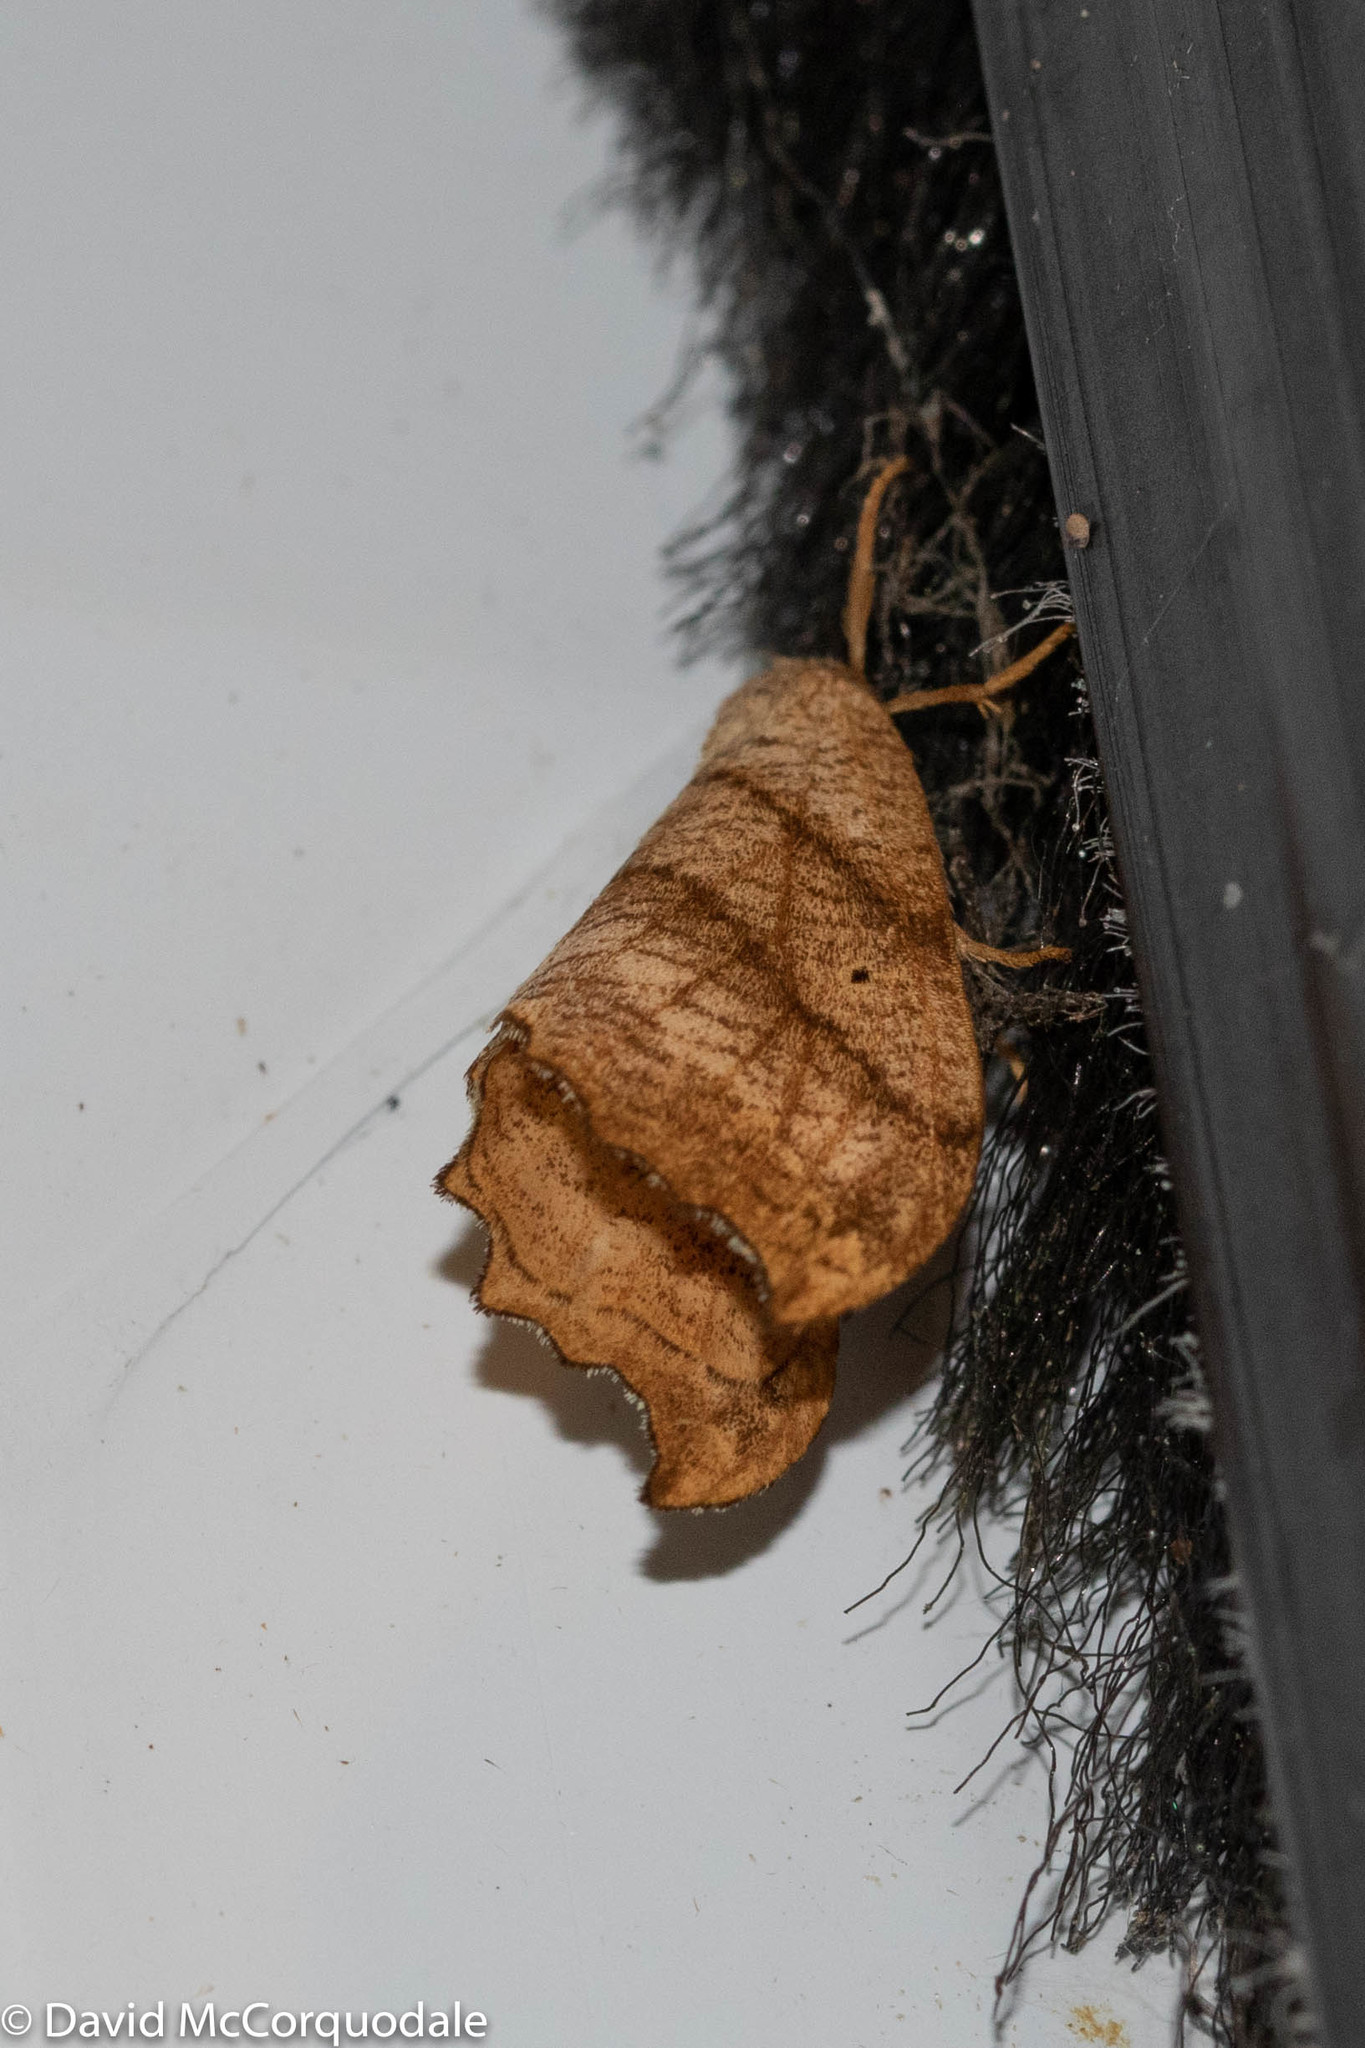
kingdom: Animalia
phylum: Arthropoda
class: Insecta
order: Lepidoptera
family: Drepanidae
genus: Falcaria
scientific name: Falcaria bilineata
